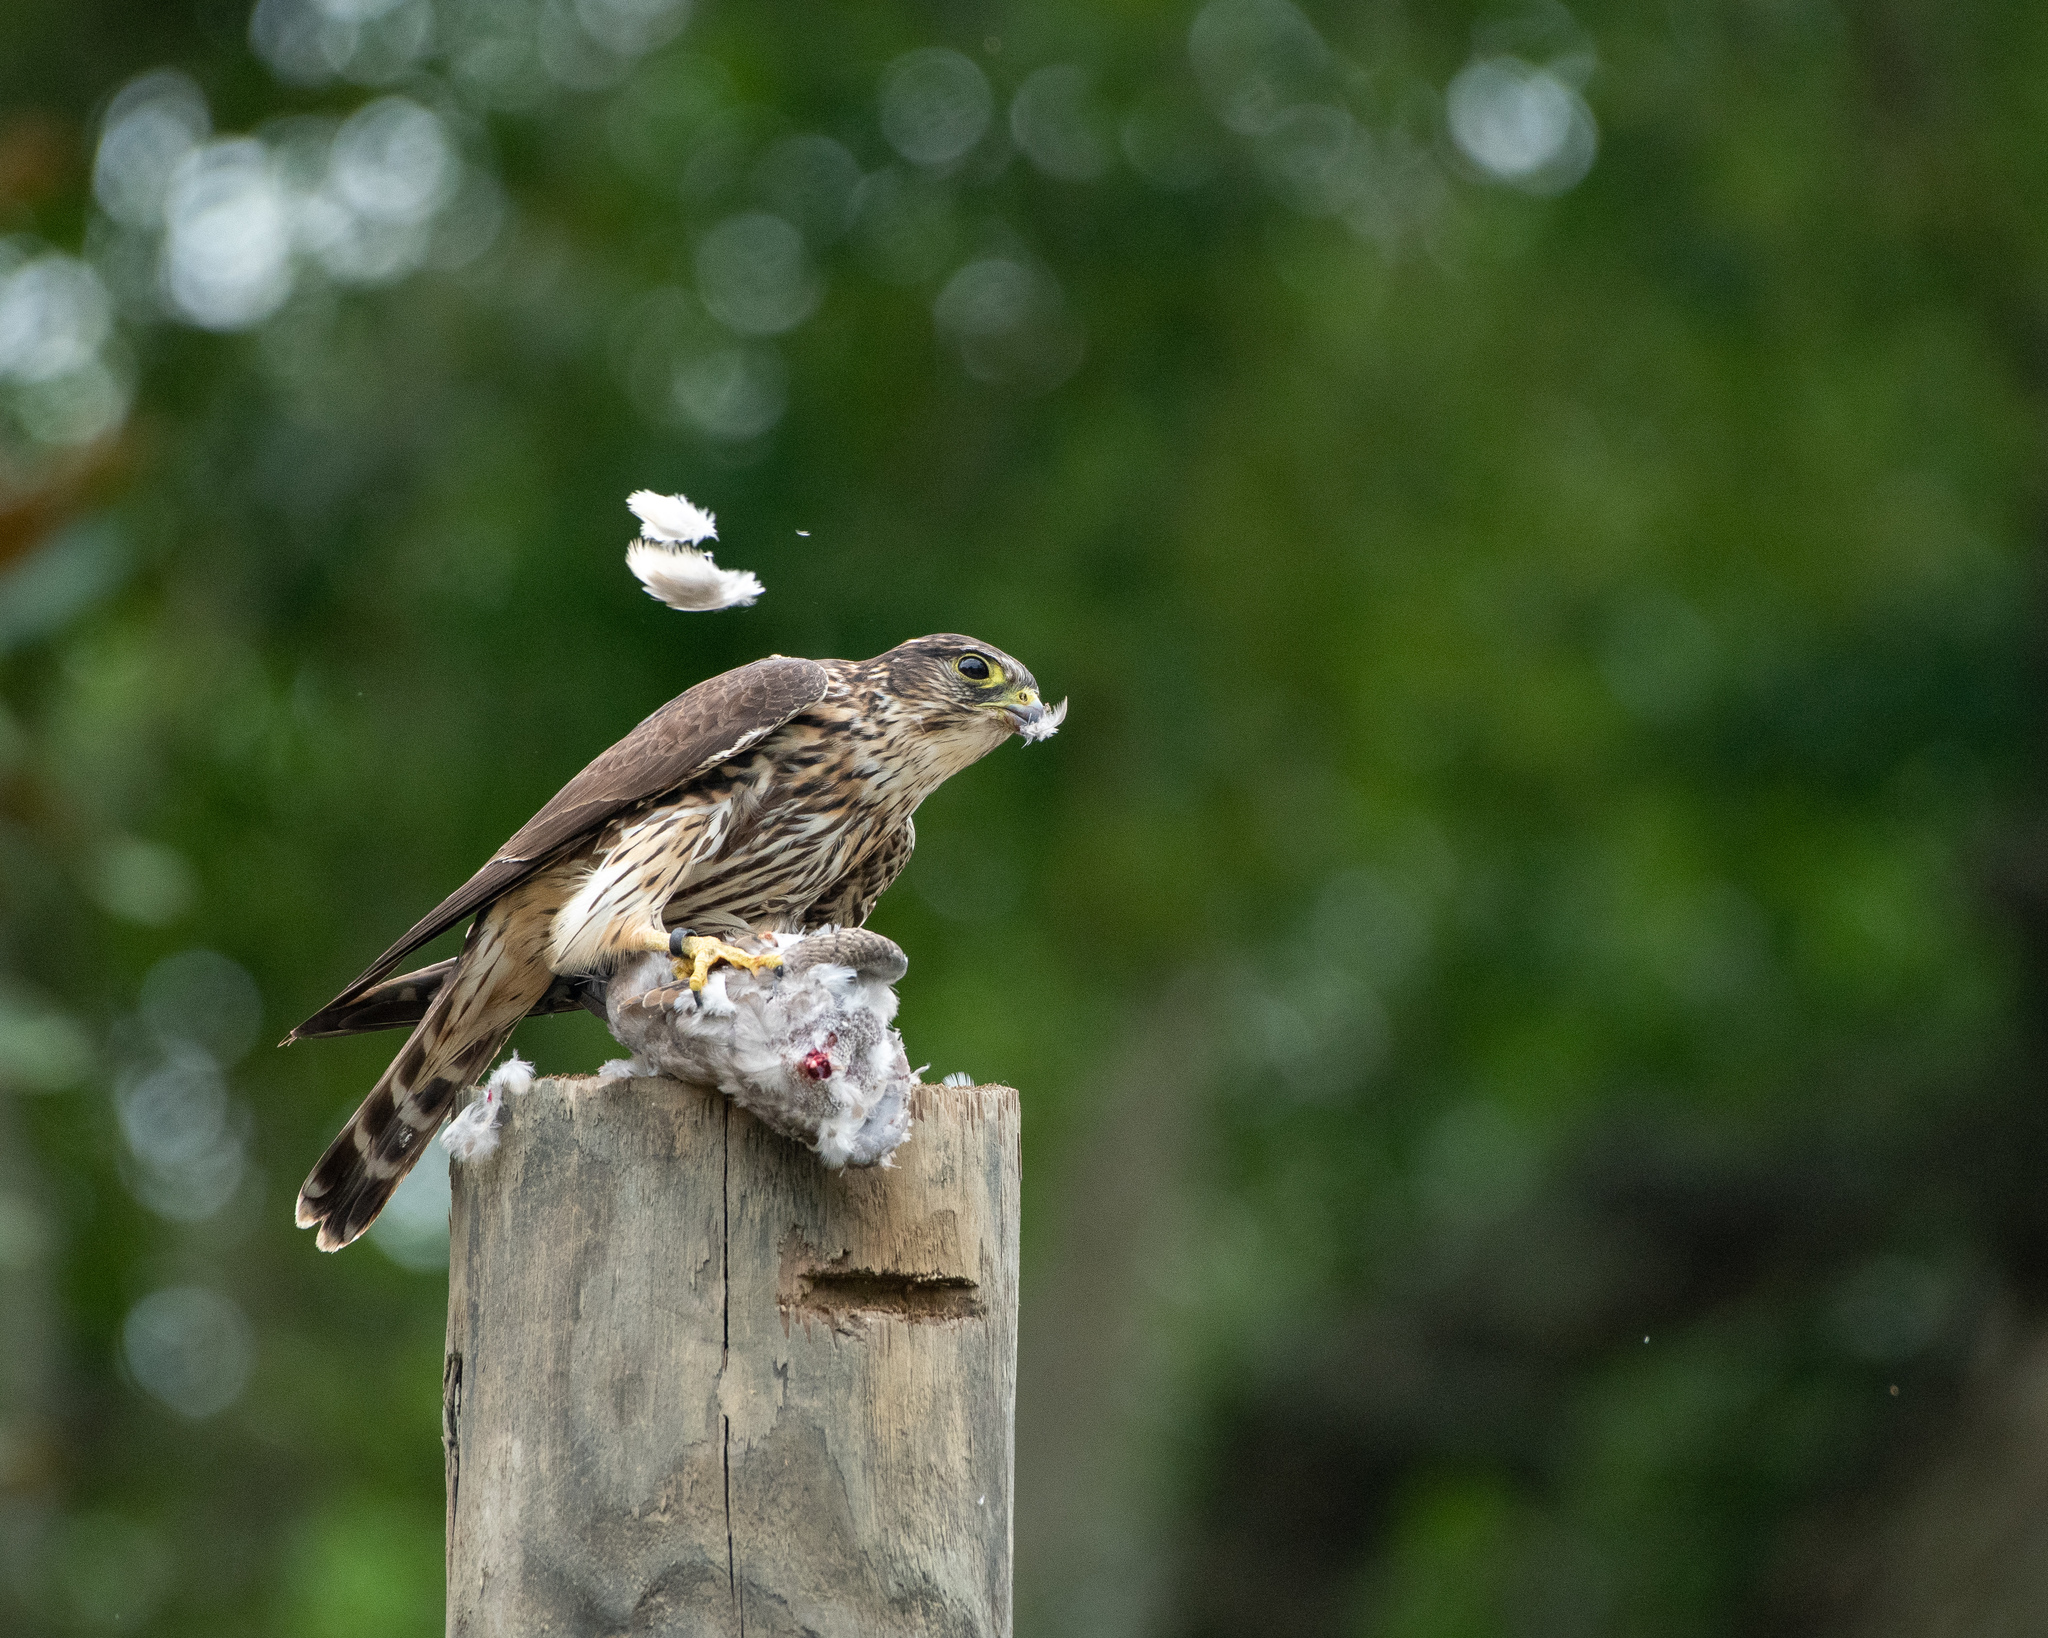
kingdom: Animalia
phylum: Chordata
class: Aves
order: Falconiformes
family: Falconidae
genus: Falco
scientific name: Falco columbarius
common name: Merlin
